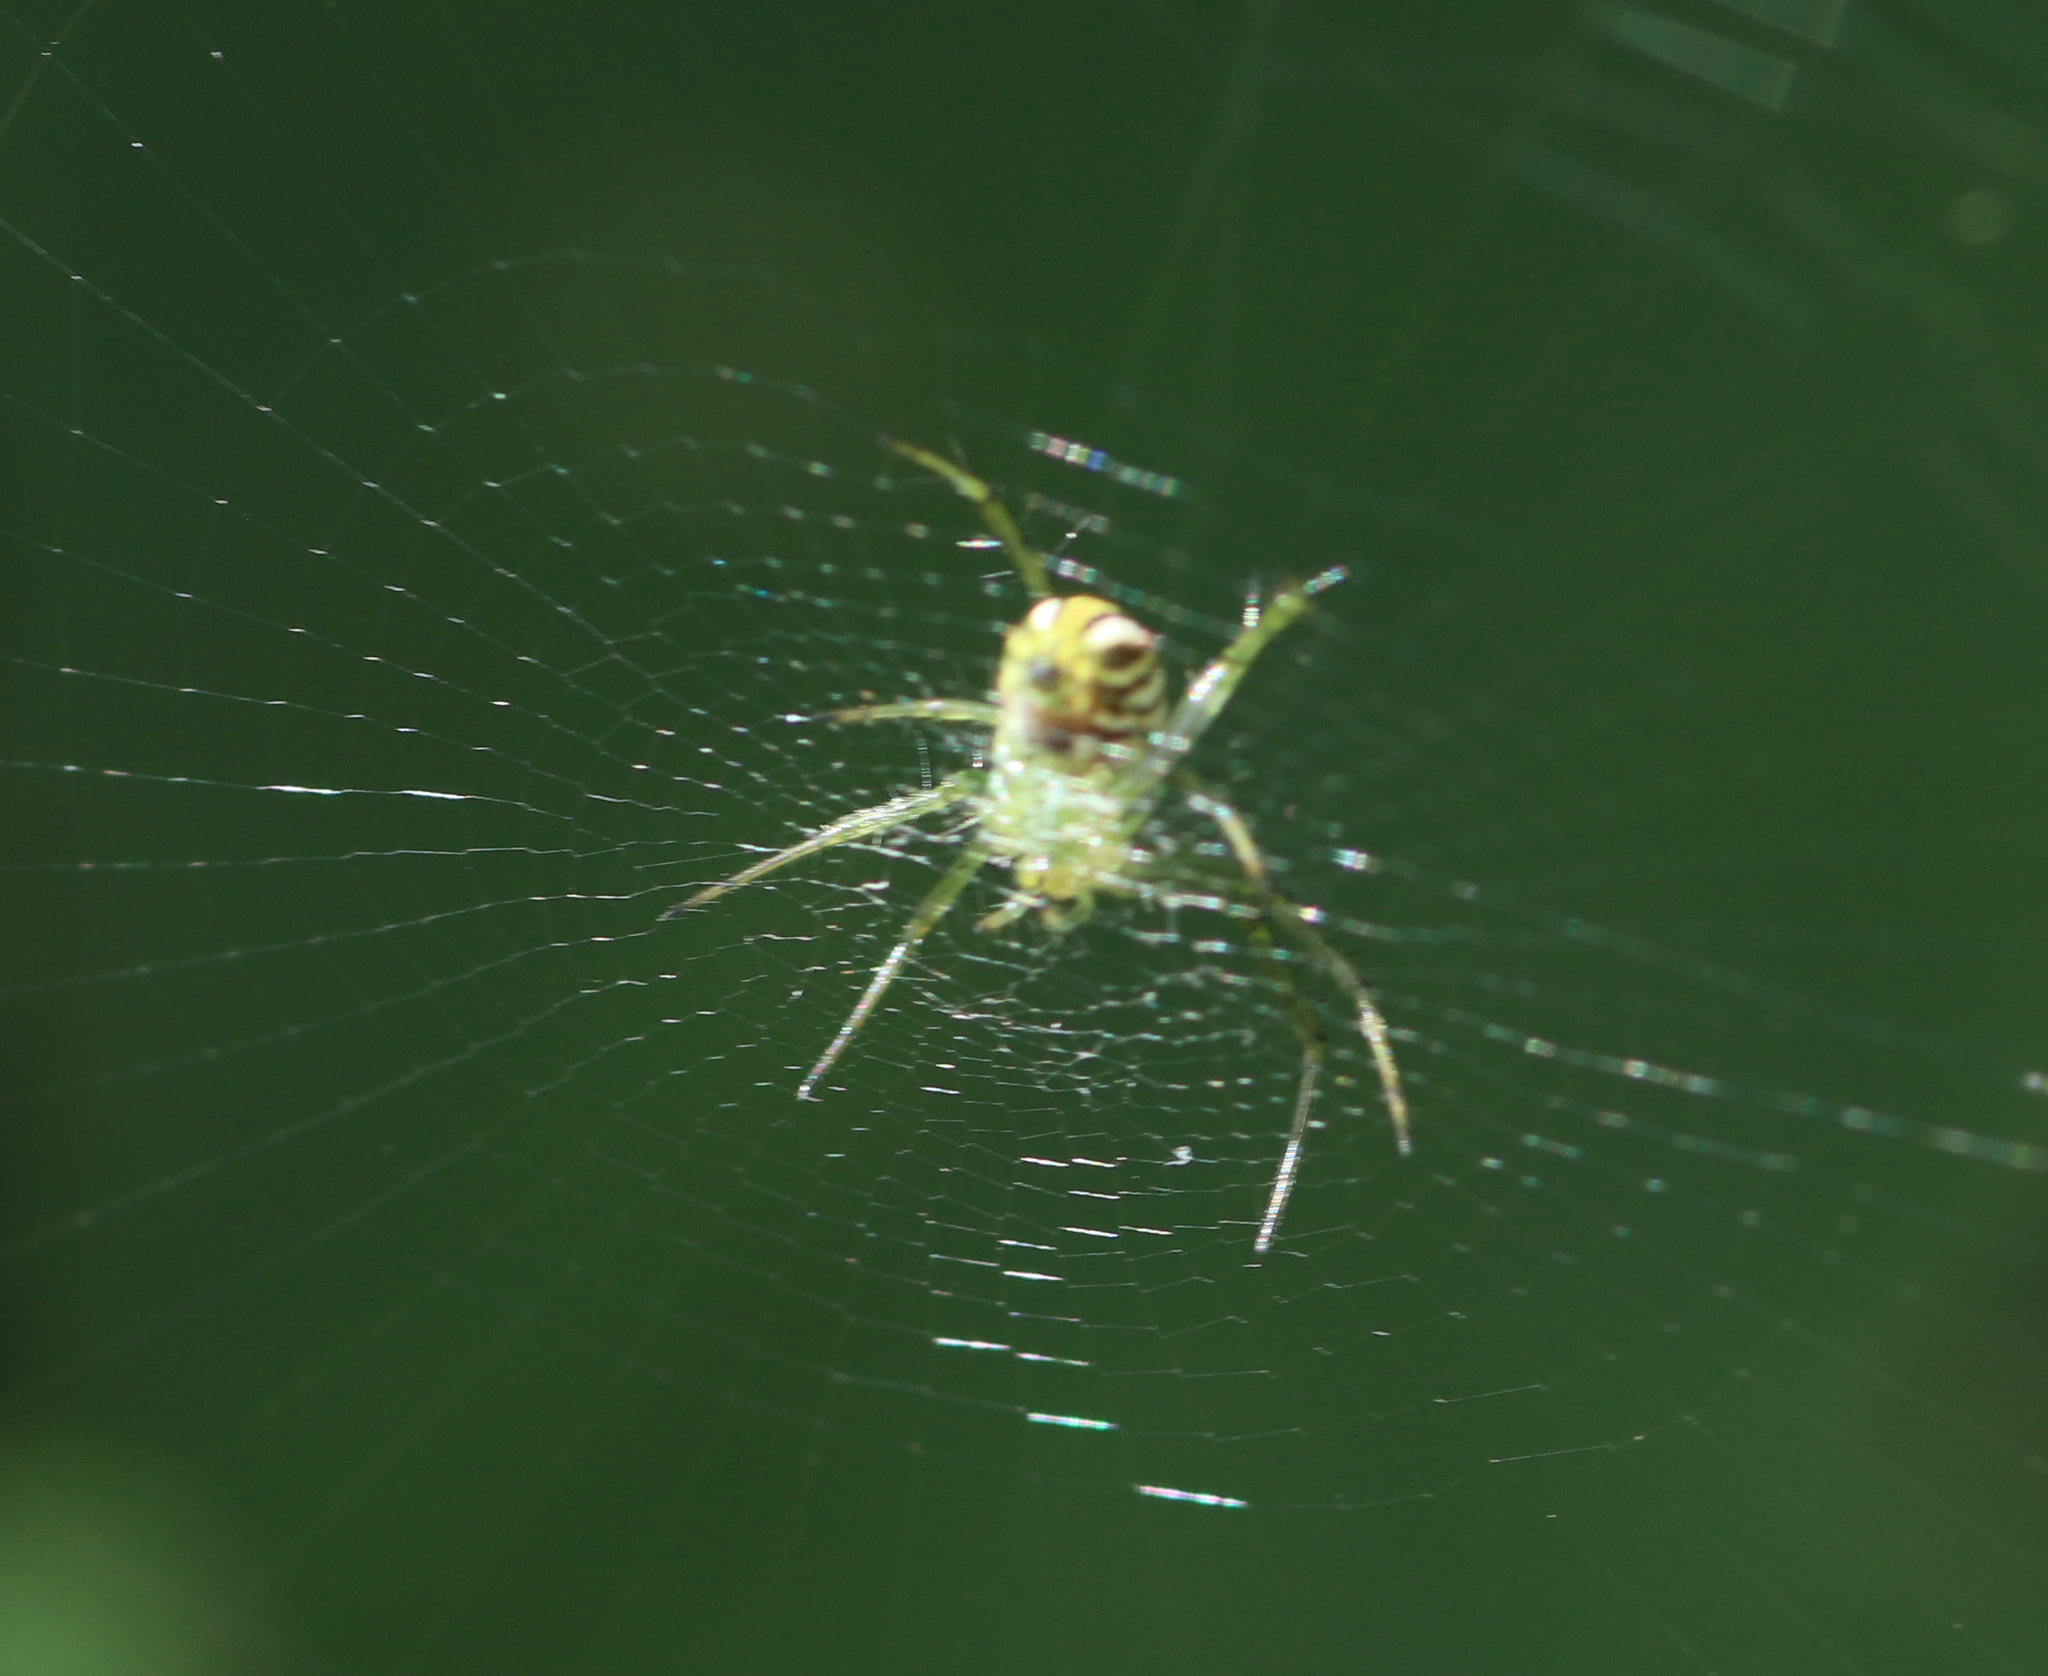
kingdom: Animalia
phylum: Arthropoda
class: Arachnida
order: Araneae
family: Araneidae
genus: Mangora
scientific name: Mangora gibberosa
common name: Lined orbweaver
